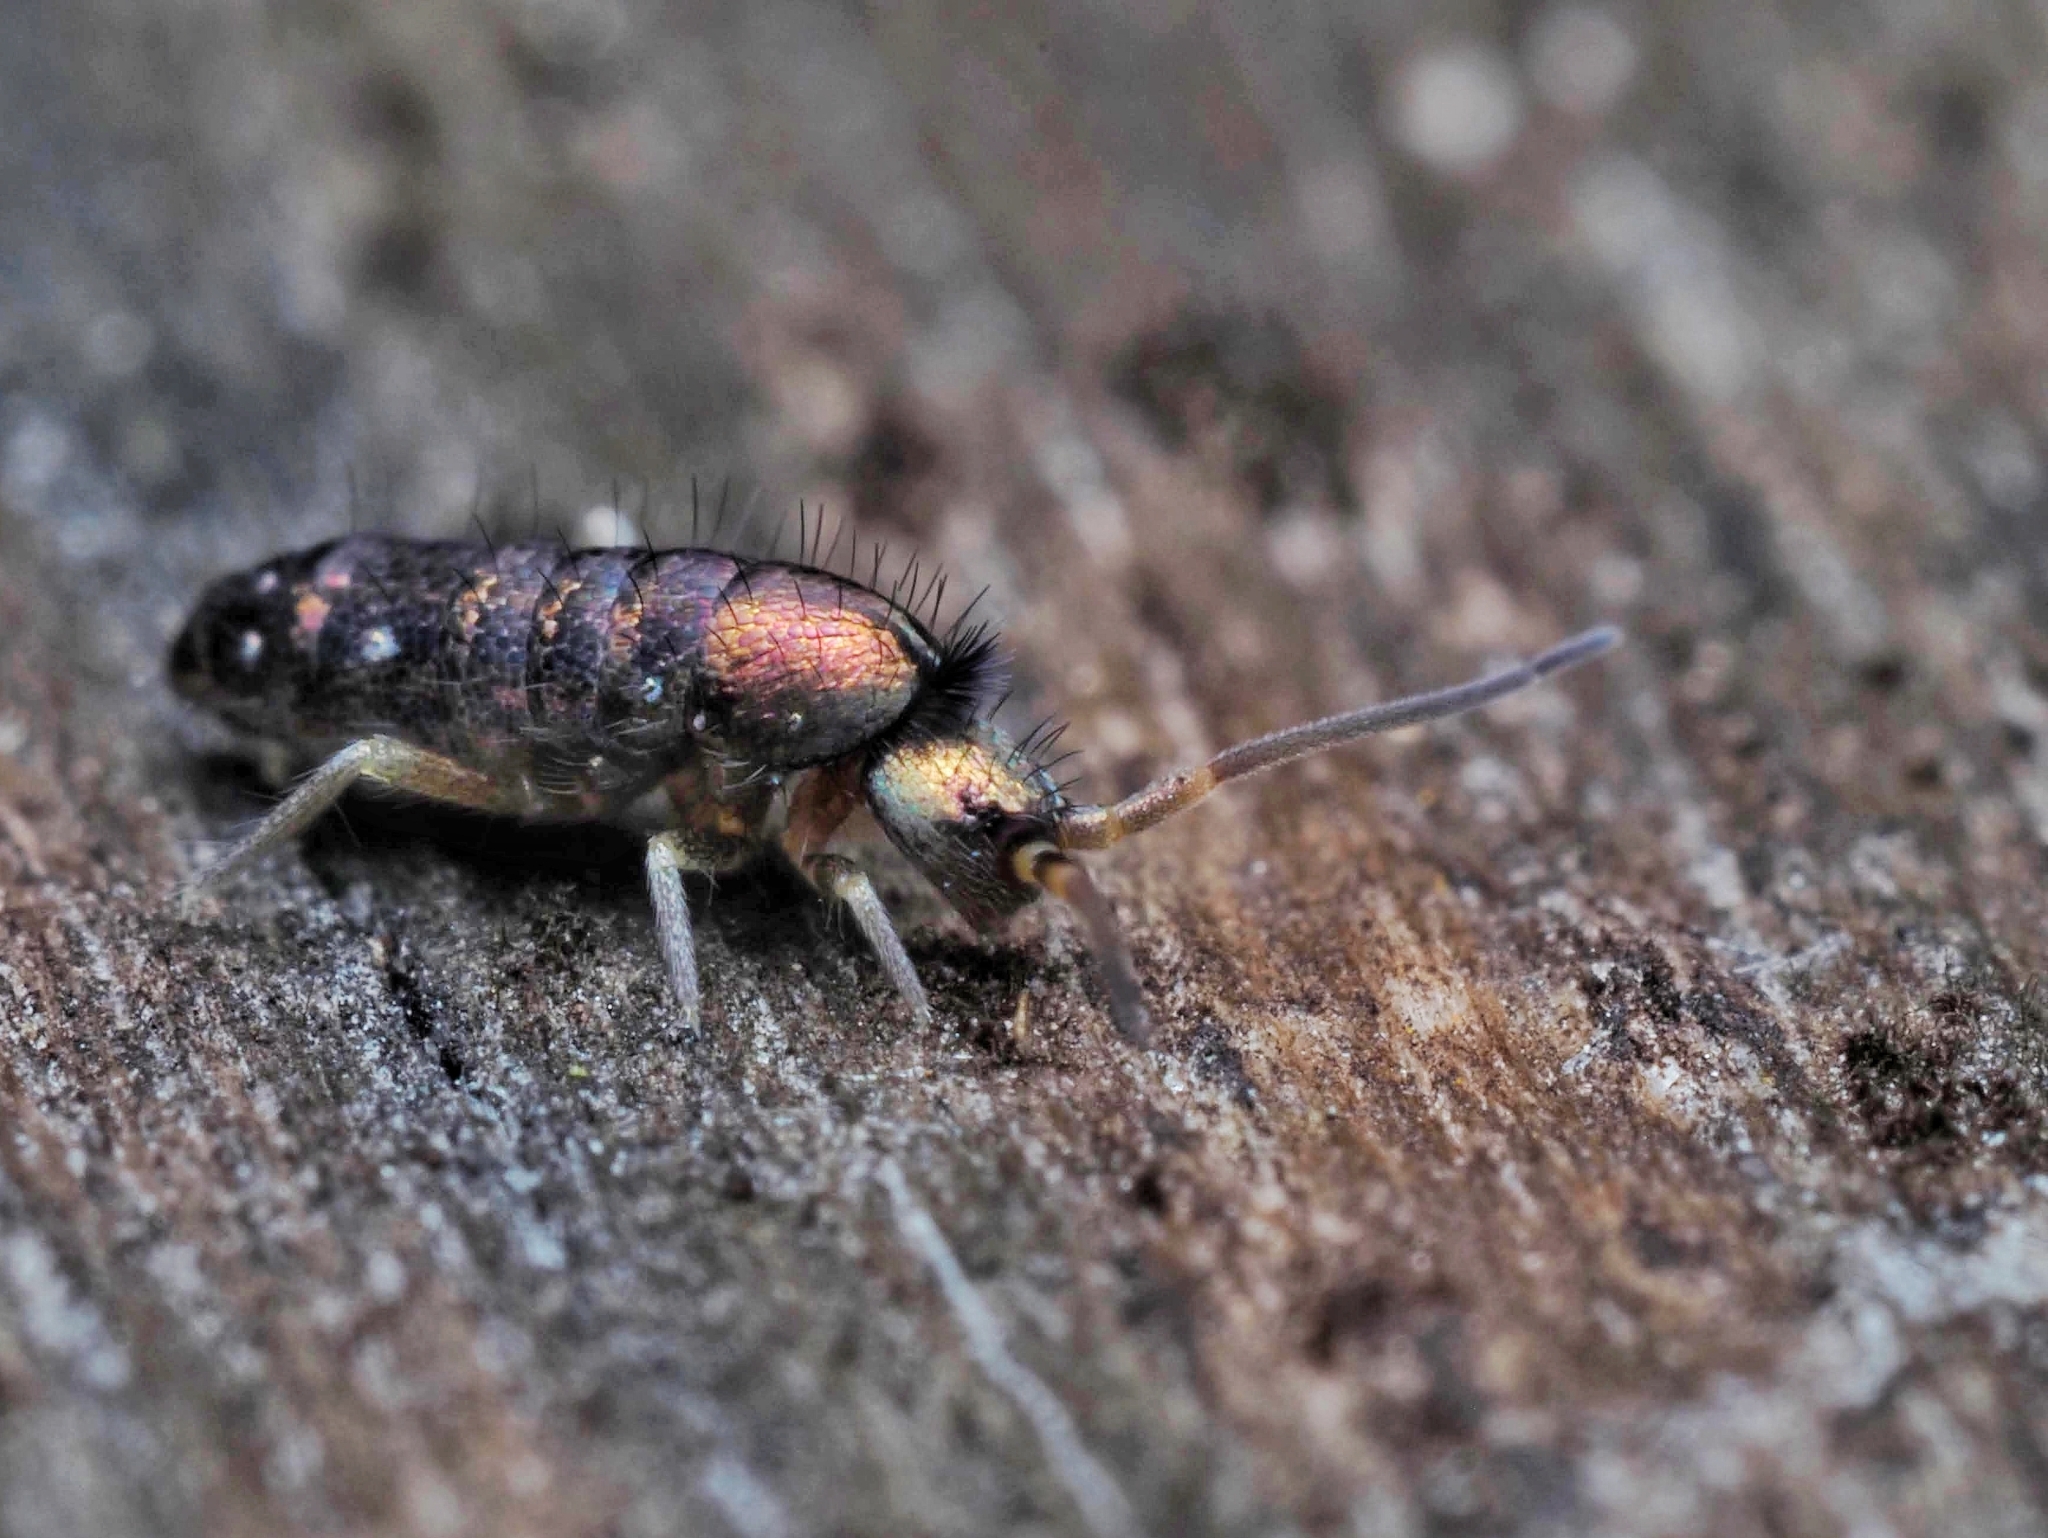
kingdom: Animalia
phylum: Arthropoda
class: Collembola
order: Entomobryomorpha
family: Tomoceridae
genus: Tomocerus
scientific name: Tomocerus vulgaris
